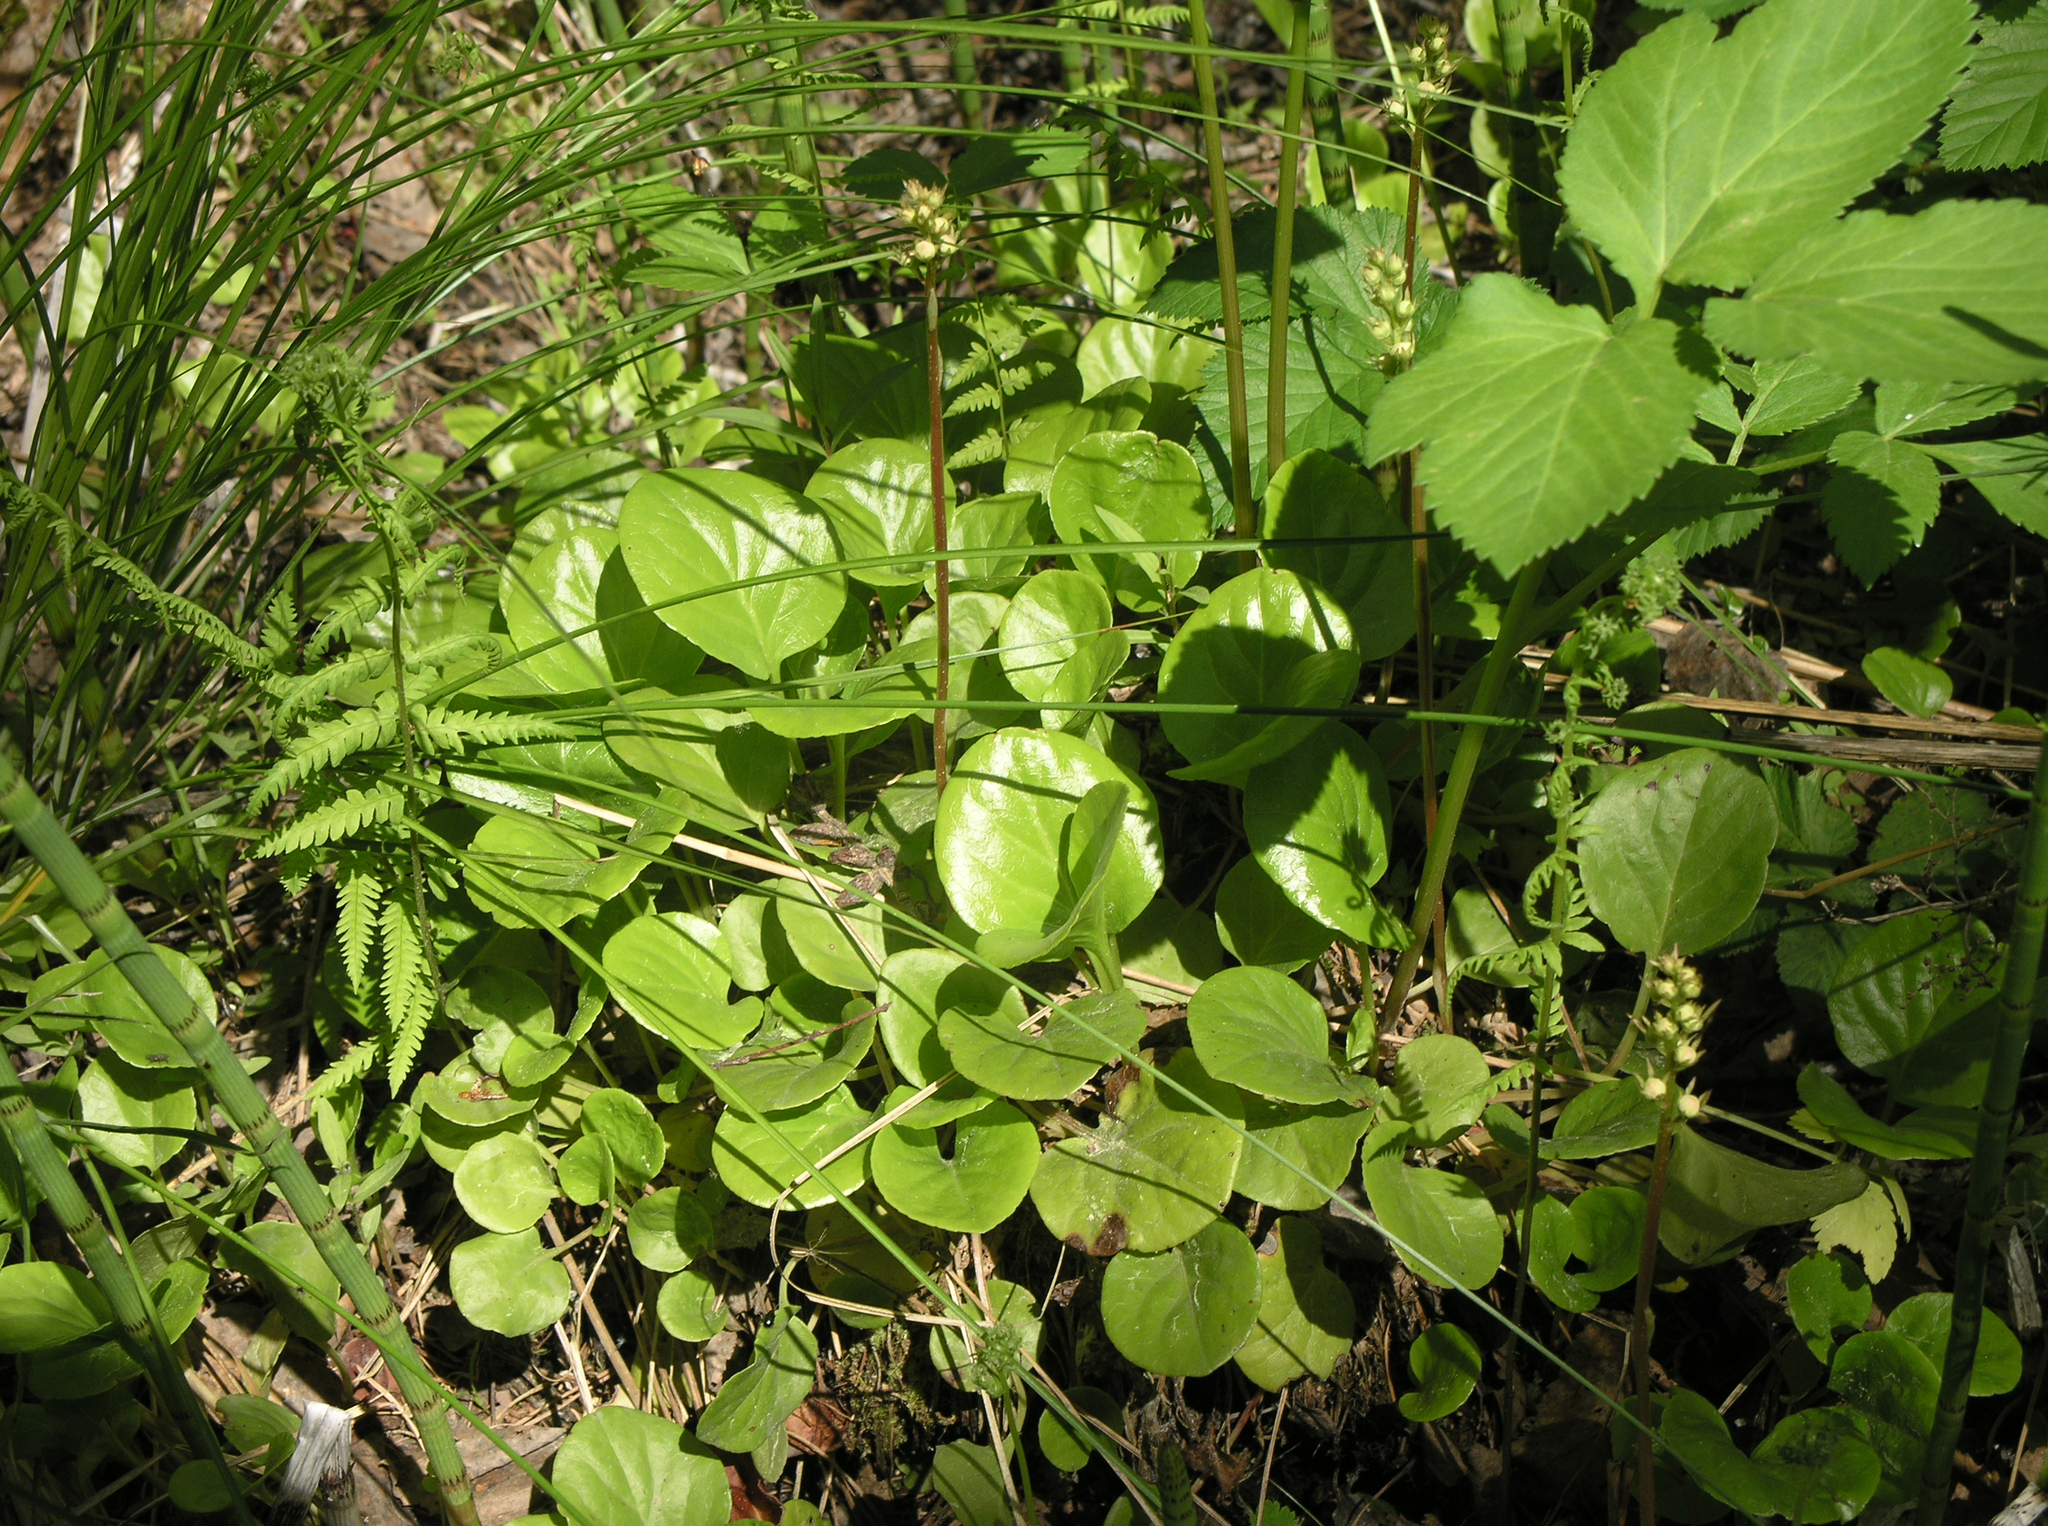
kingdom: Plantae
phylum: Tracheophyta
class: Magnoliopsida
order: Ericales
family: Ericaceae
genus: Pyrola
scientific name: Pyrola rotundifolia
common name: Round-leaved wintergreen
